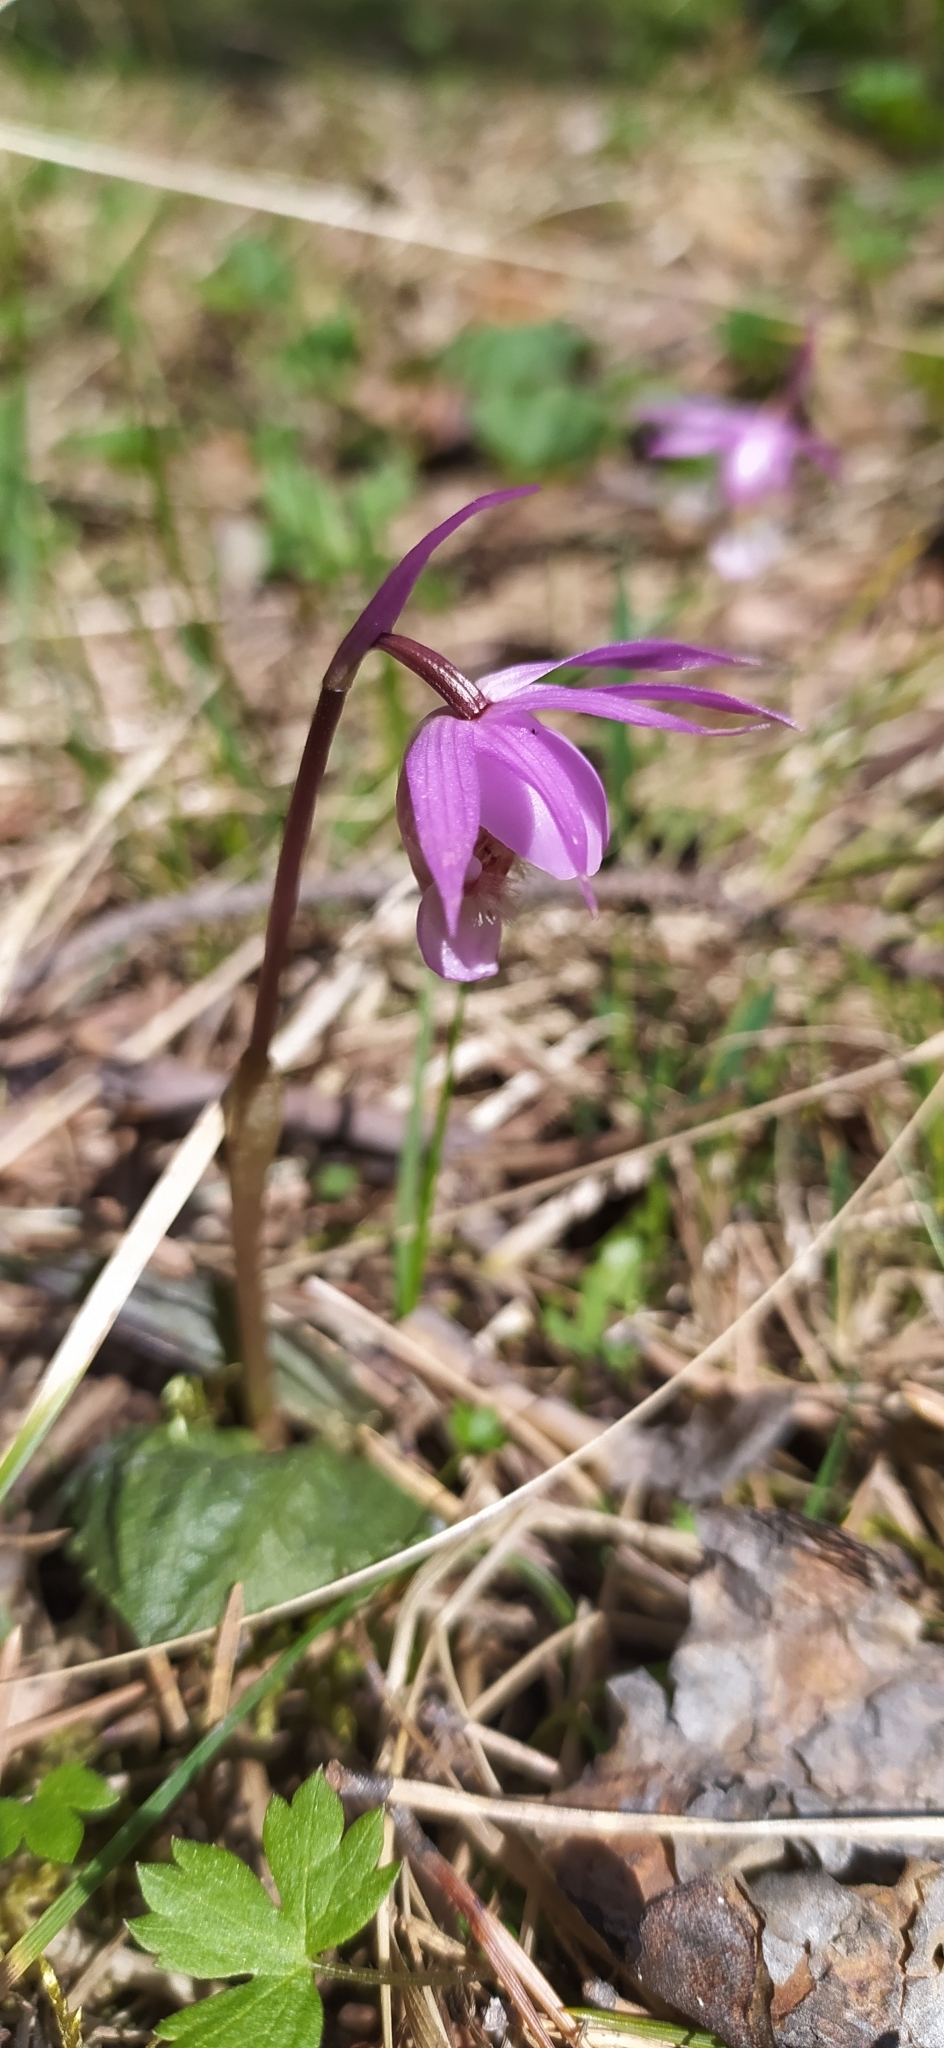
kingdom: Plantae
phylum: Tracheophyta
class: Liliopsida
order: Asparagales
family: Orchidaceae
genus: Calypso
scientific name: Calypso bulbosa
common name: Calypso
